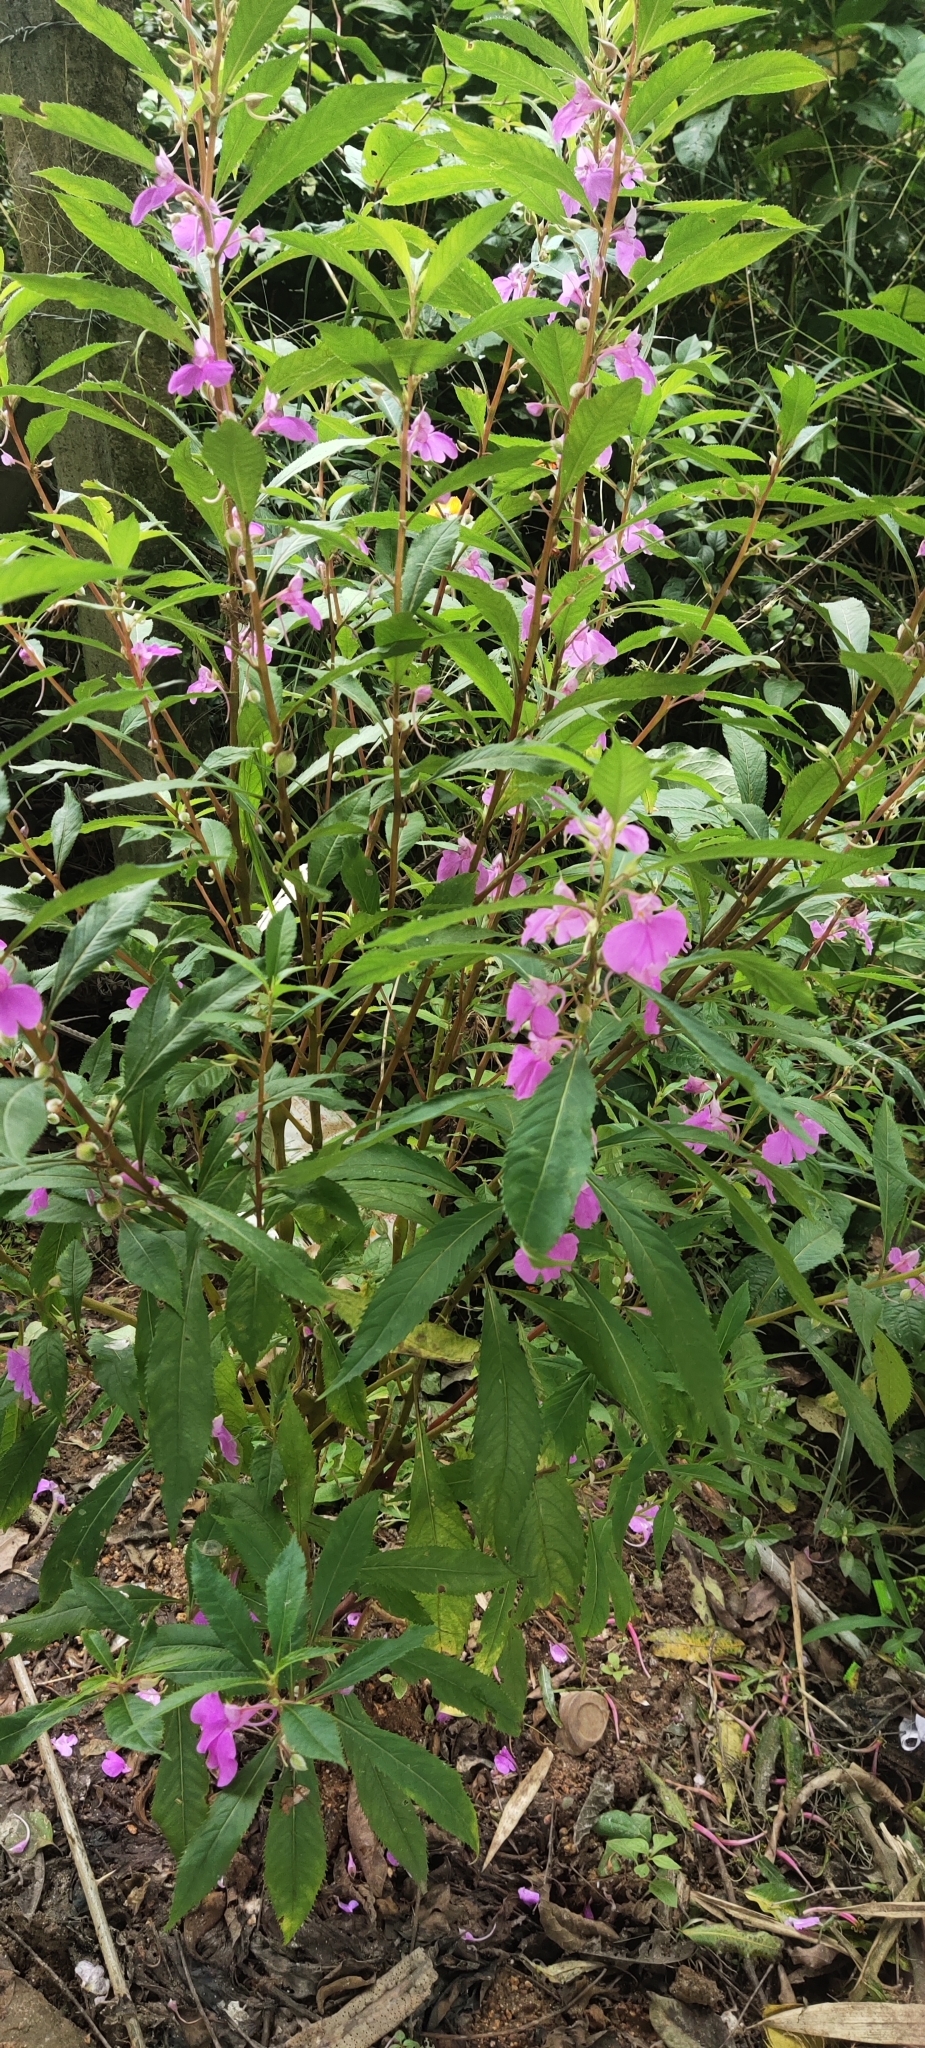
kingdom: Plantae
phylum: Tracheophyta
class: Magnoliopsida
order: Ericales
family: Balsaminaceae
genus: Impatiens
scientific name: Impatiens balsamina
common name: Balsam
